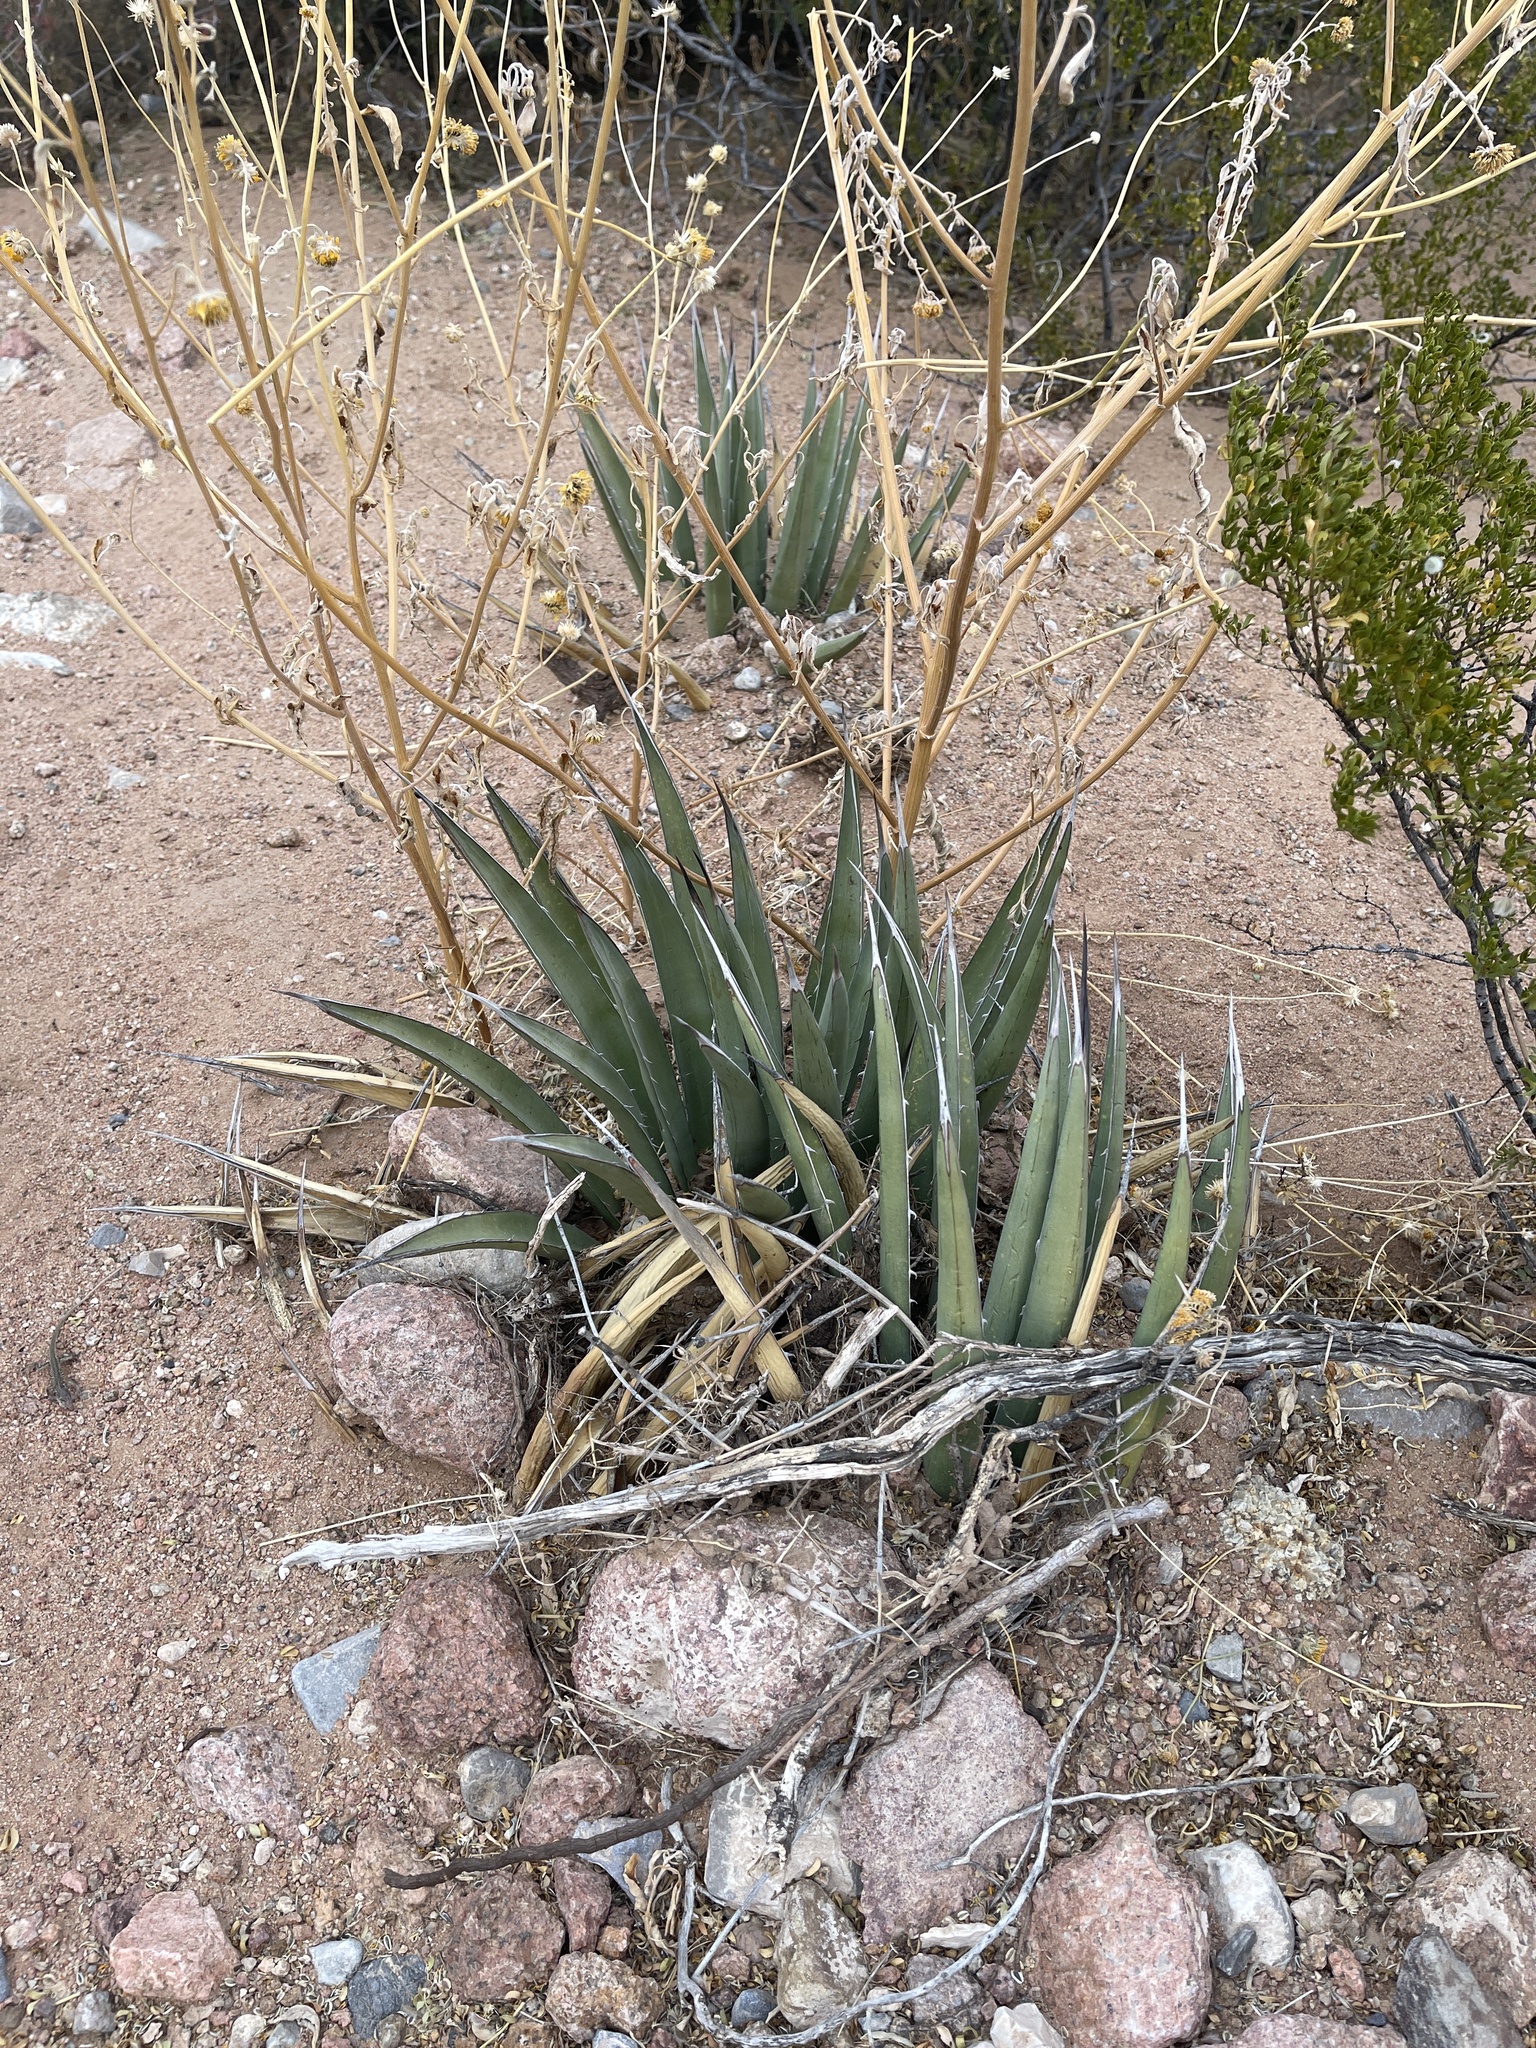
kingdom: Plantae
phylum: Tracheophyta
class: Liliopsida
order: Asparagales
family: Asparagaceae
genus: Agave
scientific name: Agave lechuguilla
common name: Lecheguilla agave
